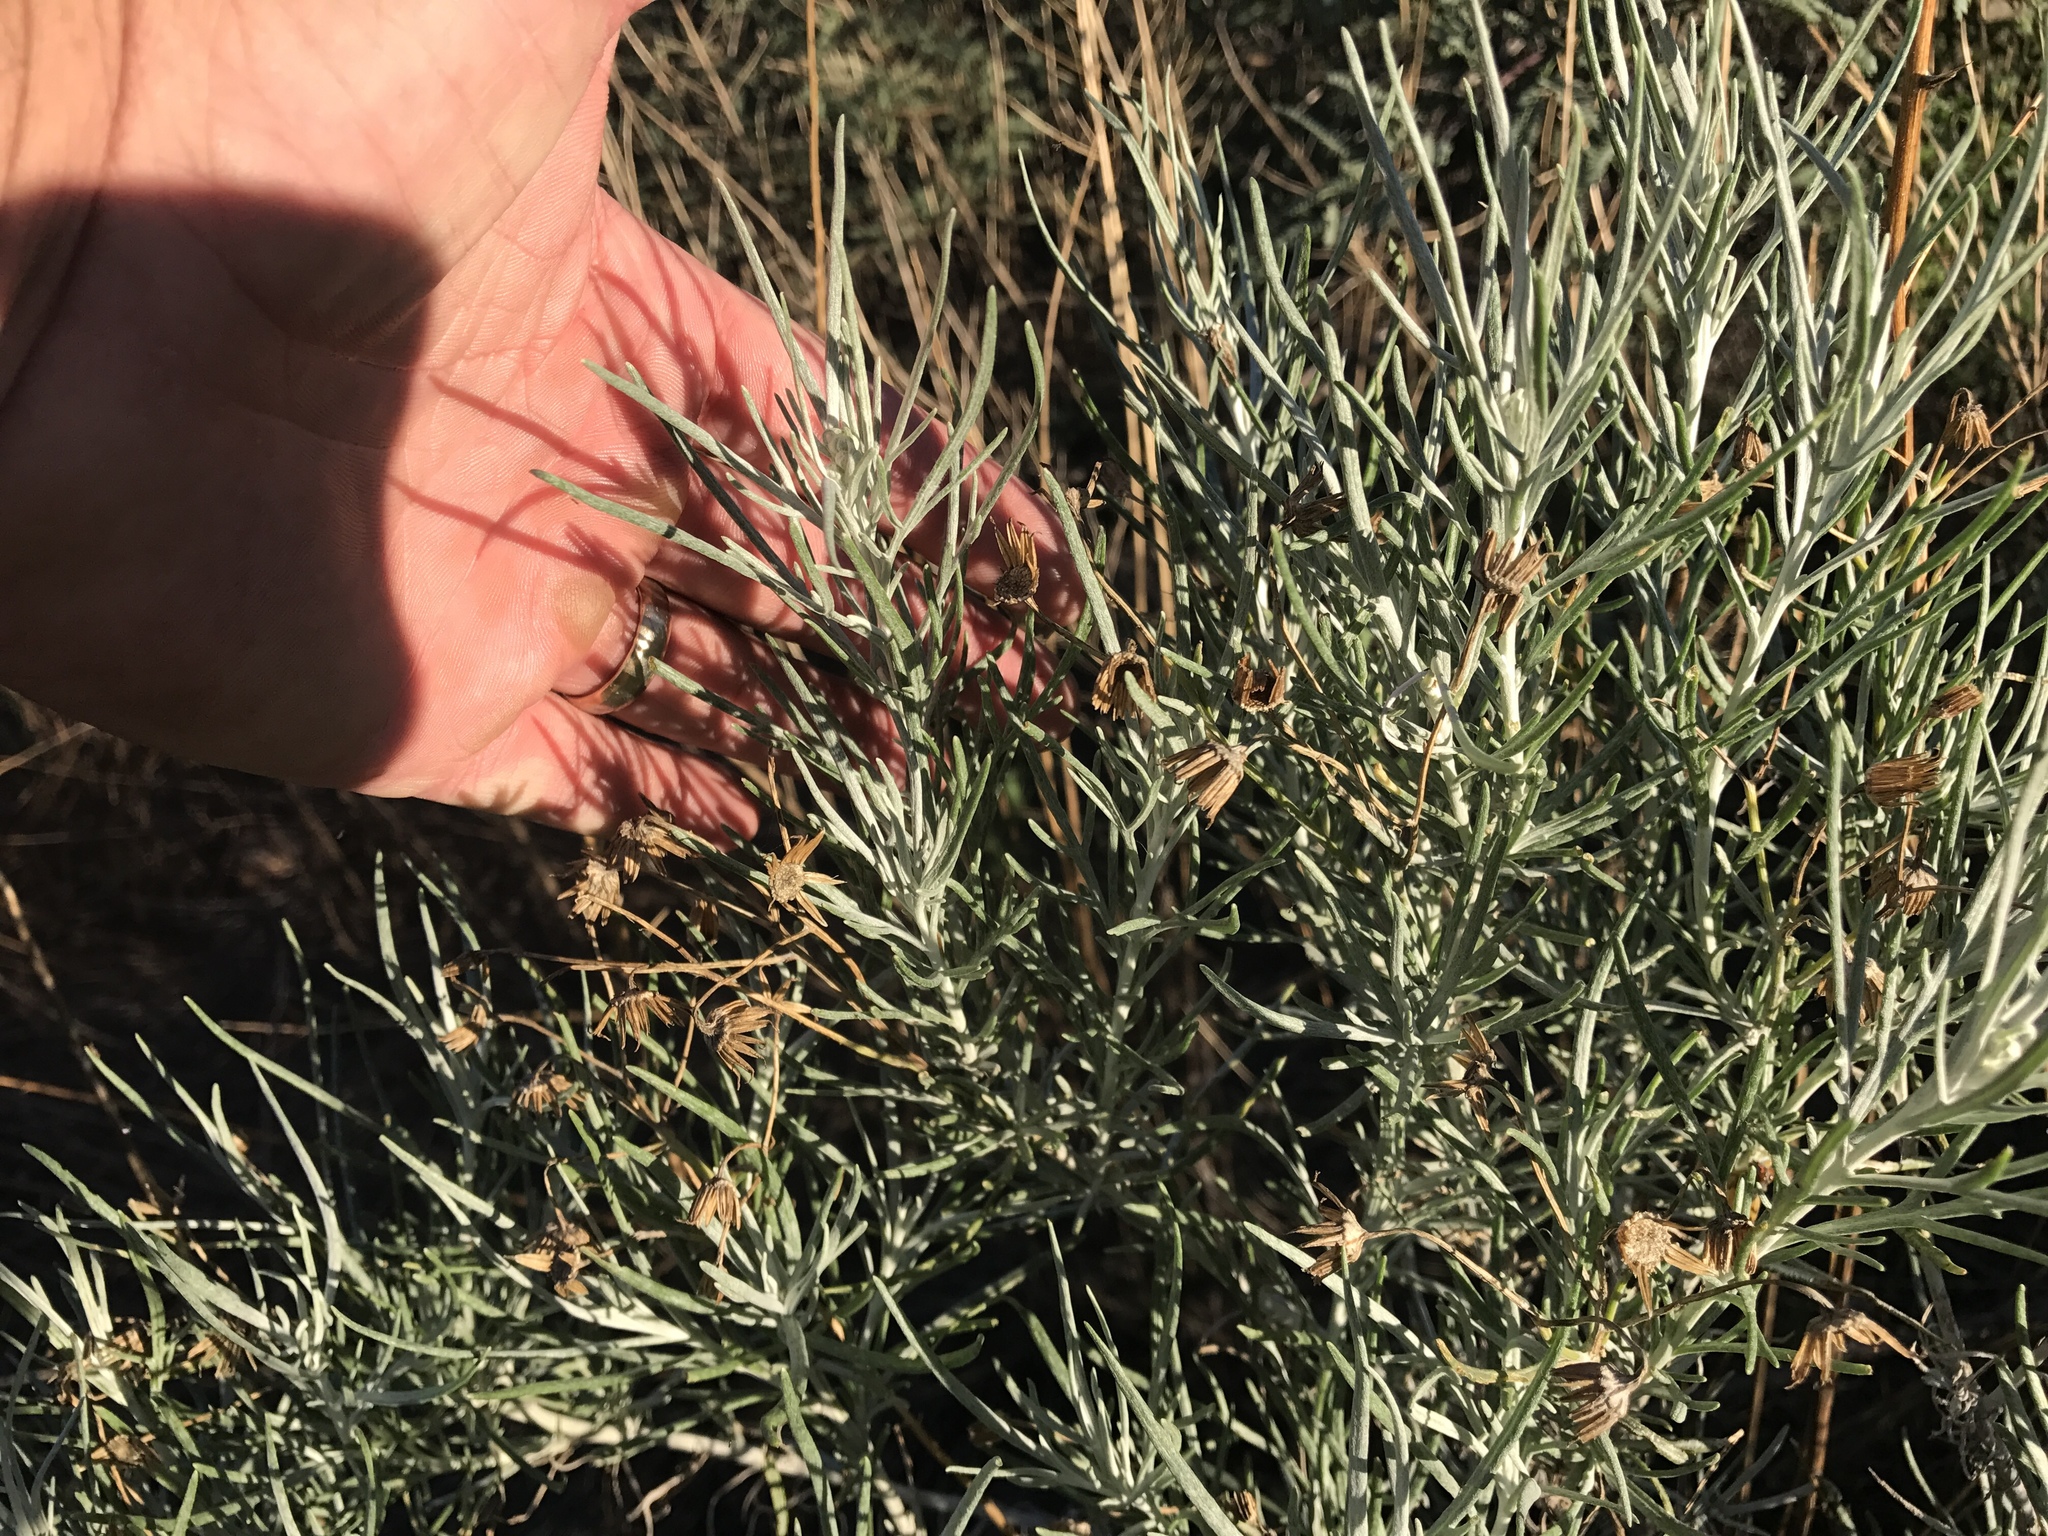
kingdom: Plantae
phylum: Tracheophyta
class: Magnoliopsida
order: Asterales
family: Asteraceae
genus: Senecio
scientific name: Senecio flaccidus
